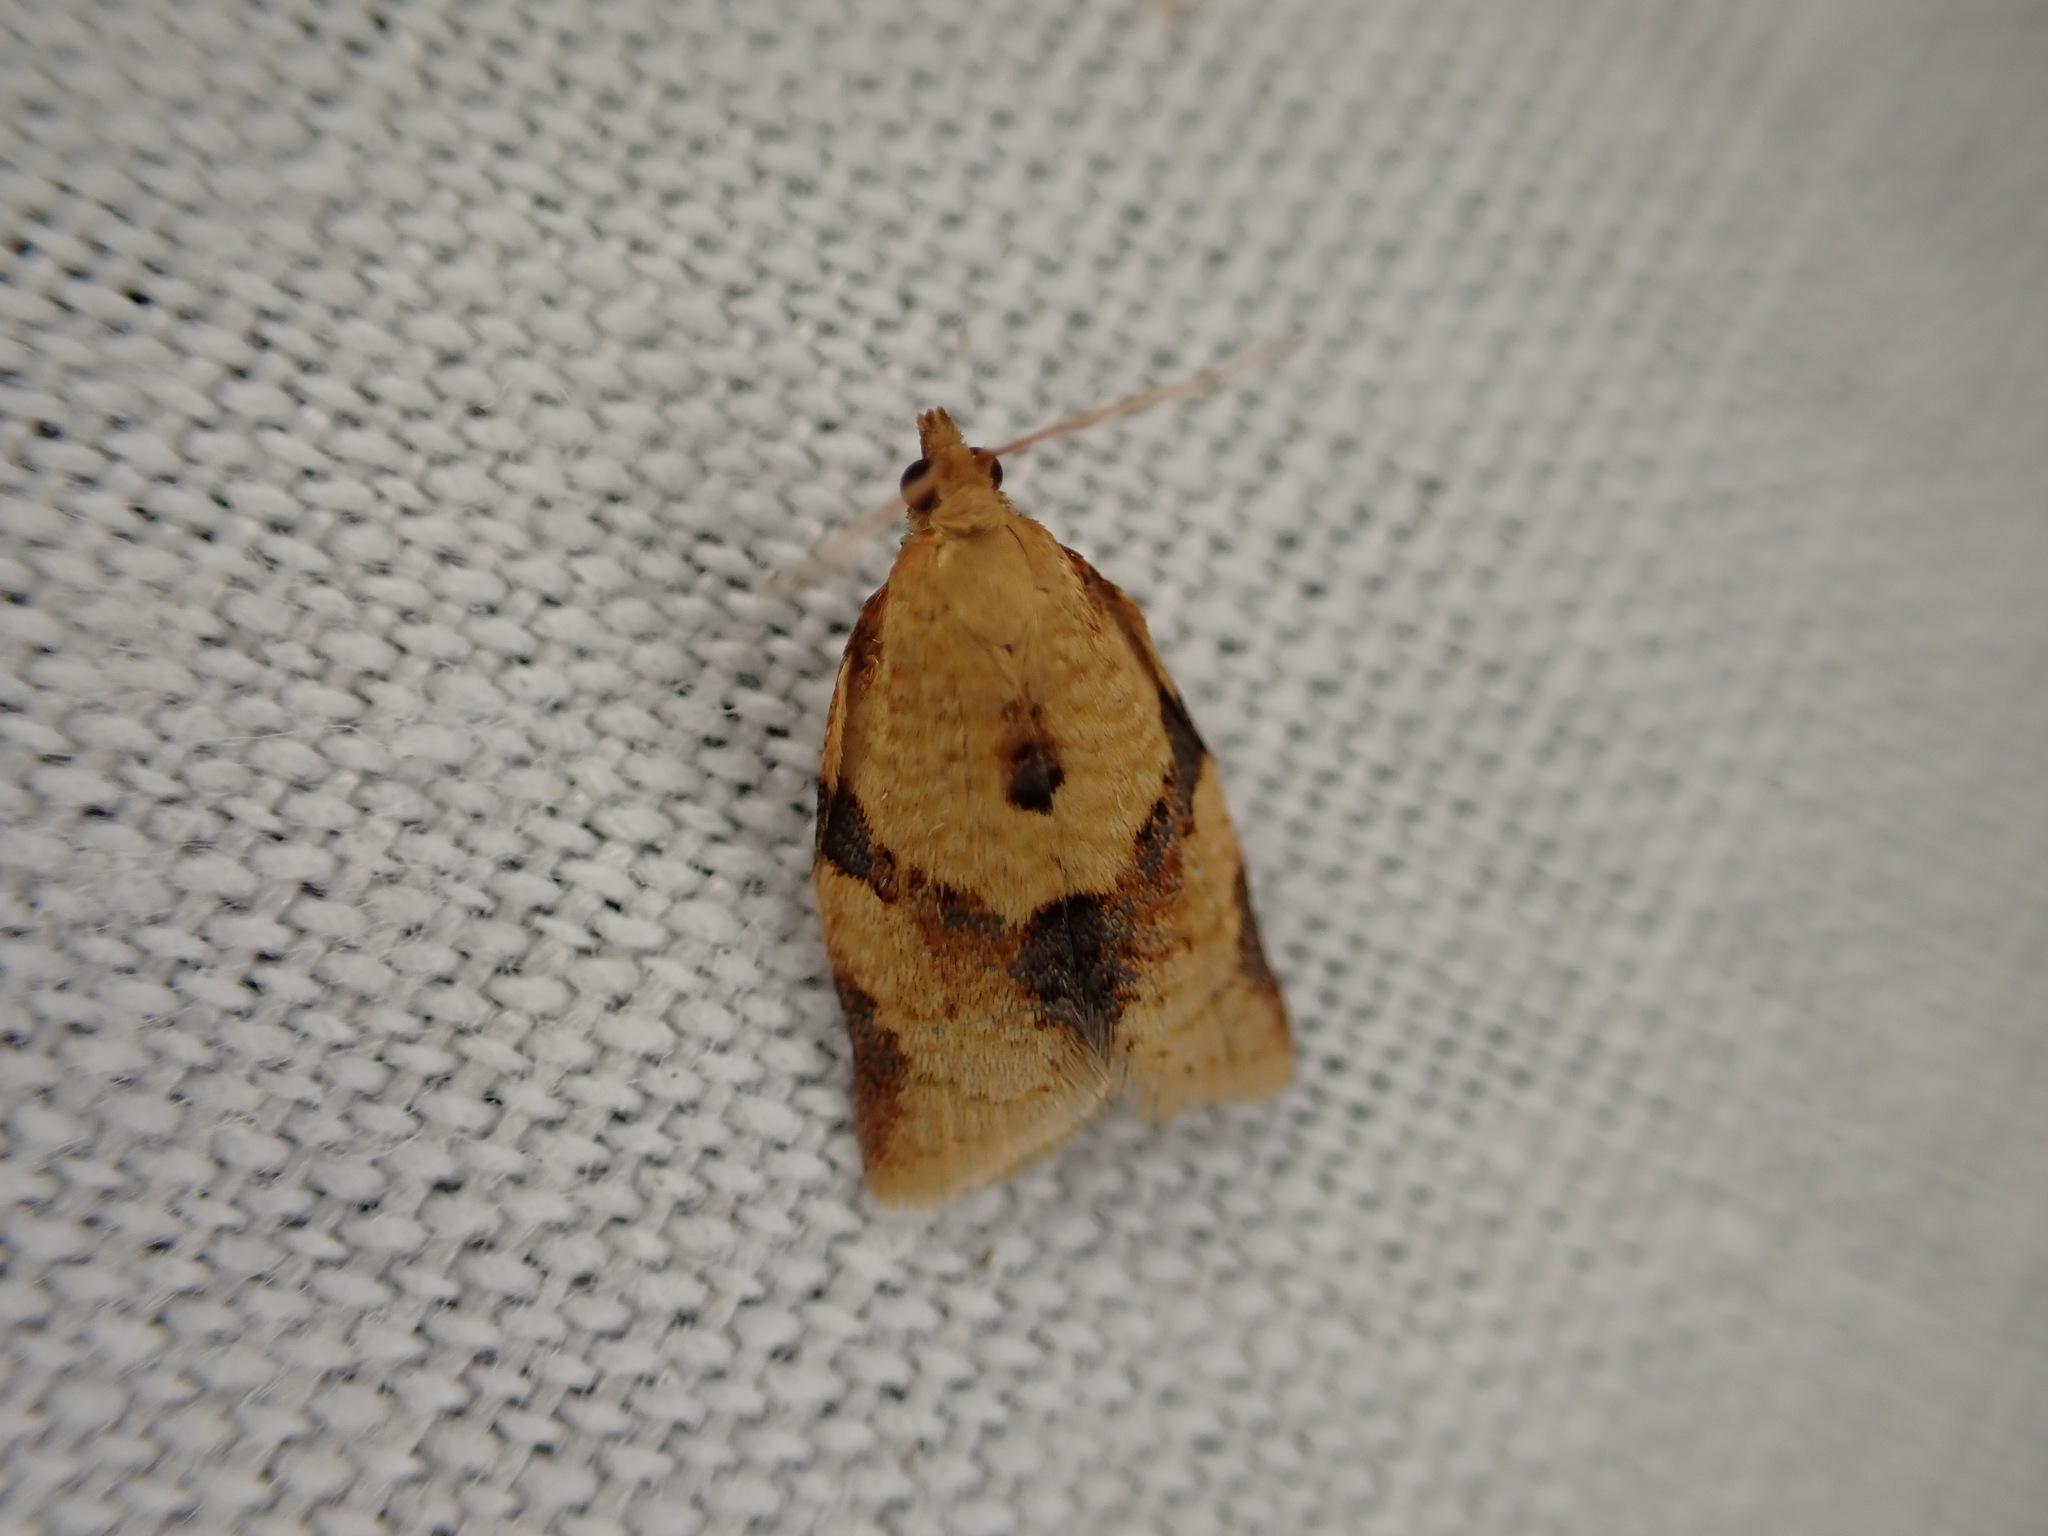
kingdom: Animalia
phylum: Arthropoda
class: Insecta
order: Lepidoptera
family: Tortricidae
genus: Clepsis
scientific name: Clepsis consimilana
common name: Privet tortrix
